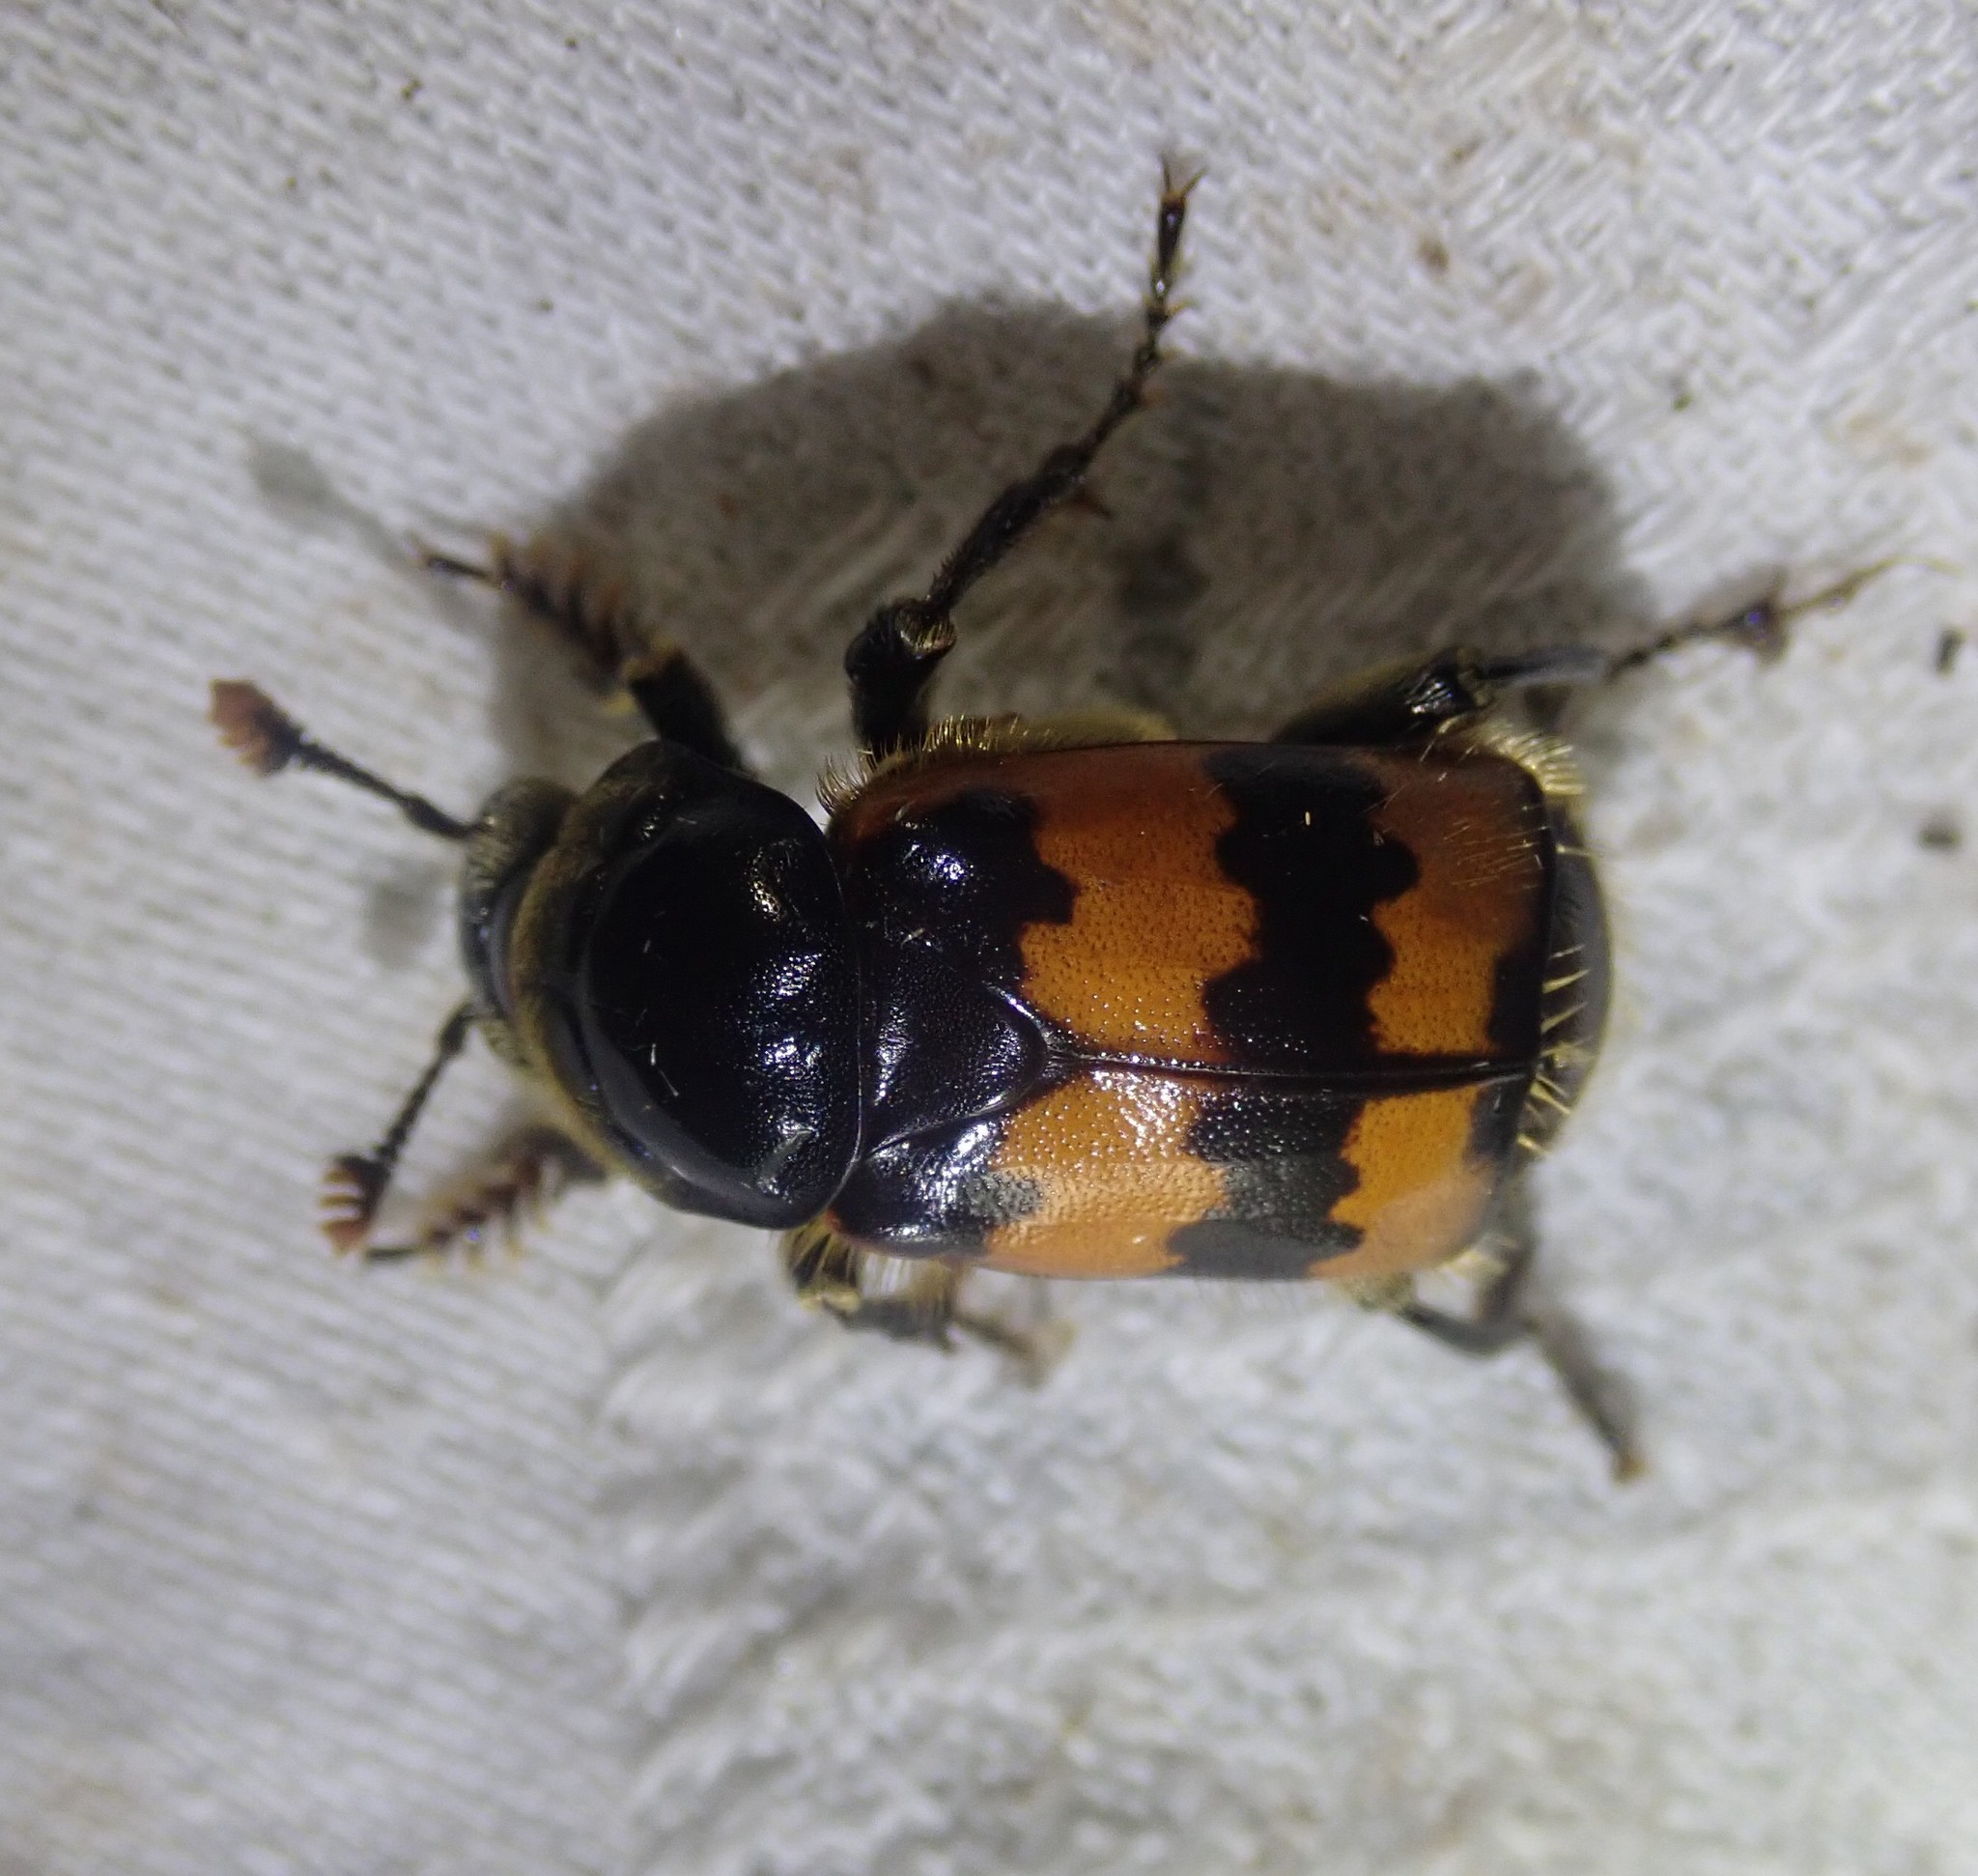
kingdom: Animalia
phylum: Arthropoda
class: Insecta
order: Coleoptera
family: Staphylinidae
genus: Nicrophorus
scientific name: Nicrophorus vespillo
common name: Common burying beetle
